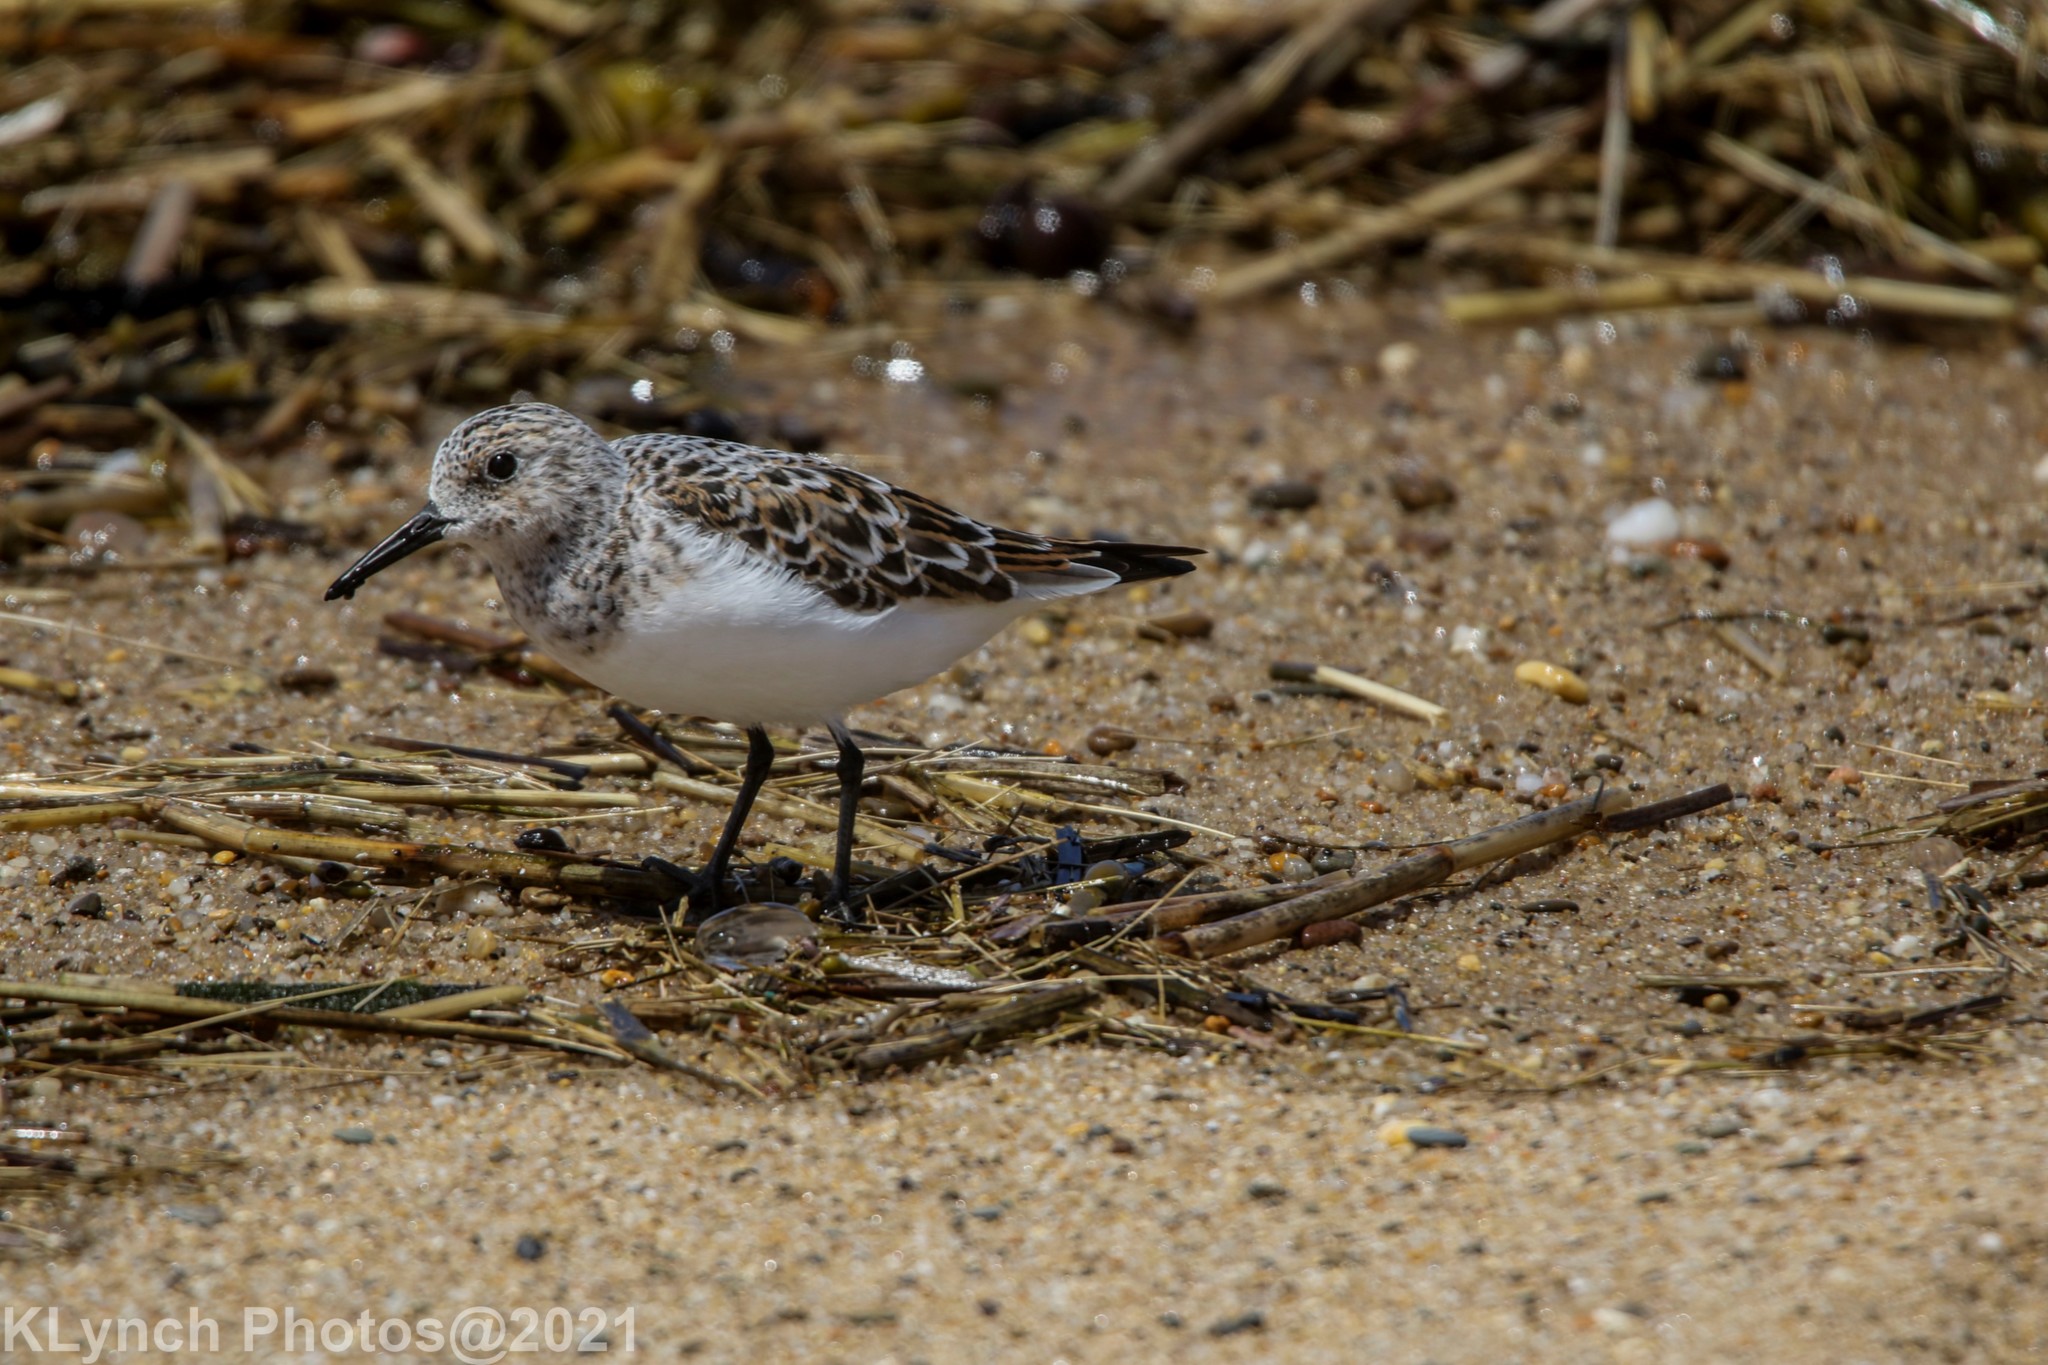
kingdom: Animalia
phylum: Chordata
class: Aves
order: Charadriiformes
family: Scolopacidae
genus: Calidris
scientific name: Calidris alba
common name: Sanderling
